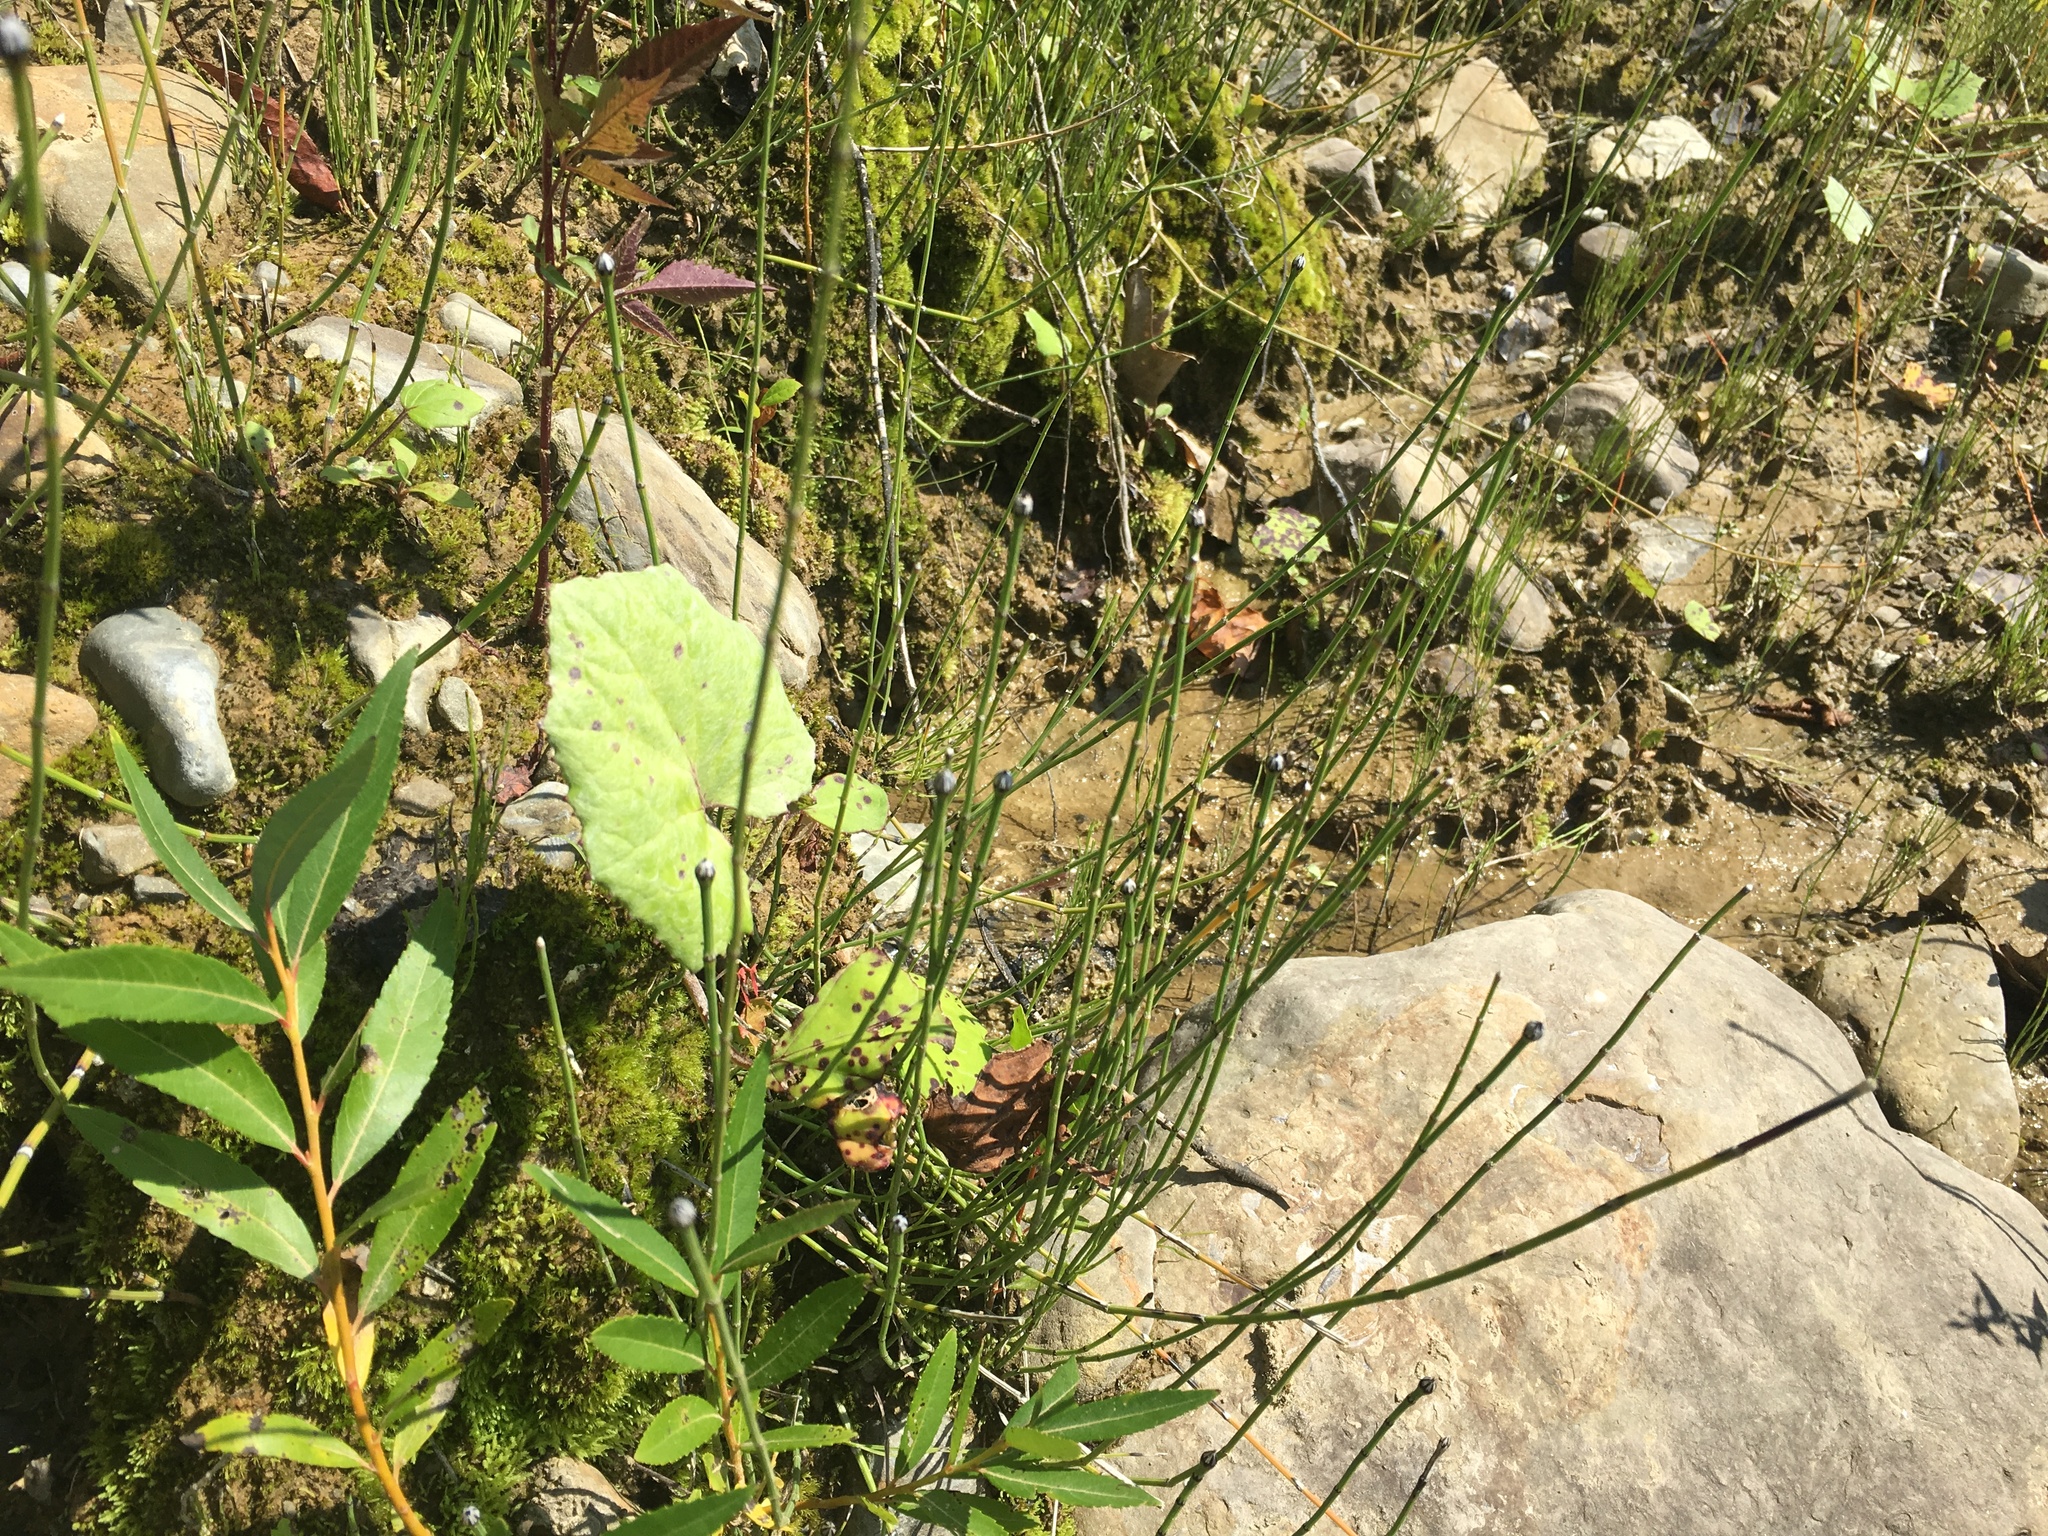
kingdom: Plantae
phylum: Tracheophyta
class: Polypodiopsida
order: Equisetales
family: Equisetaceae
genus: Equisetum
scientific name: Equisetum variegatum
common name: Variegated horsetail
